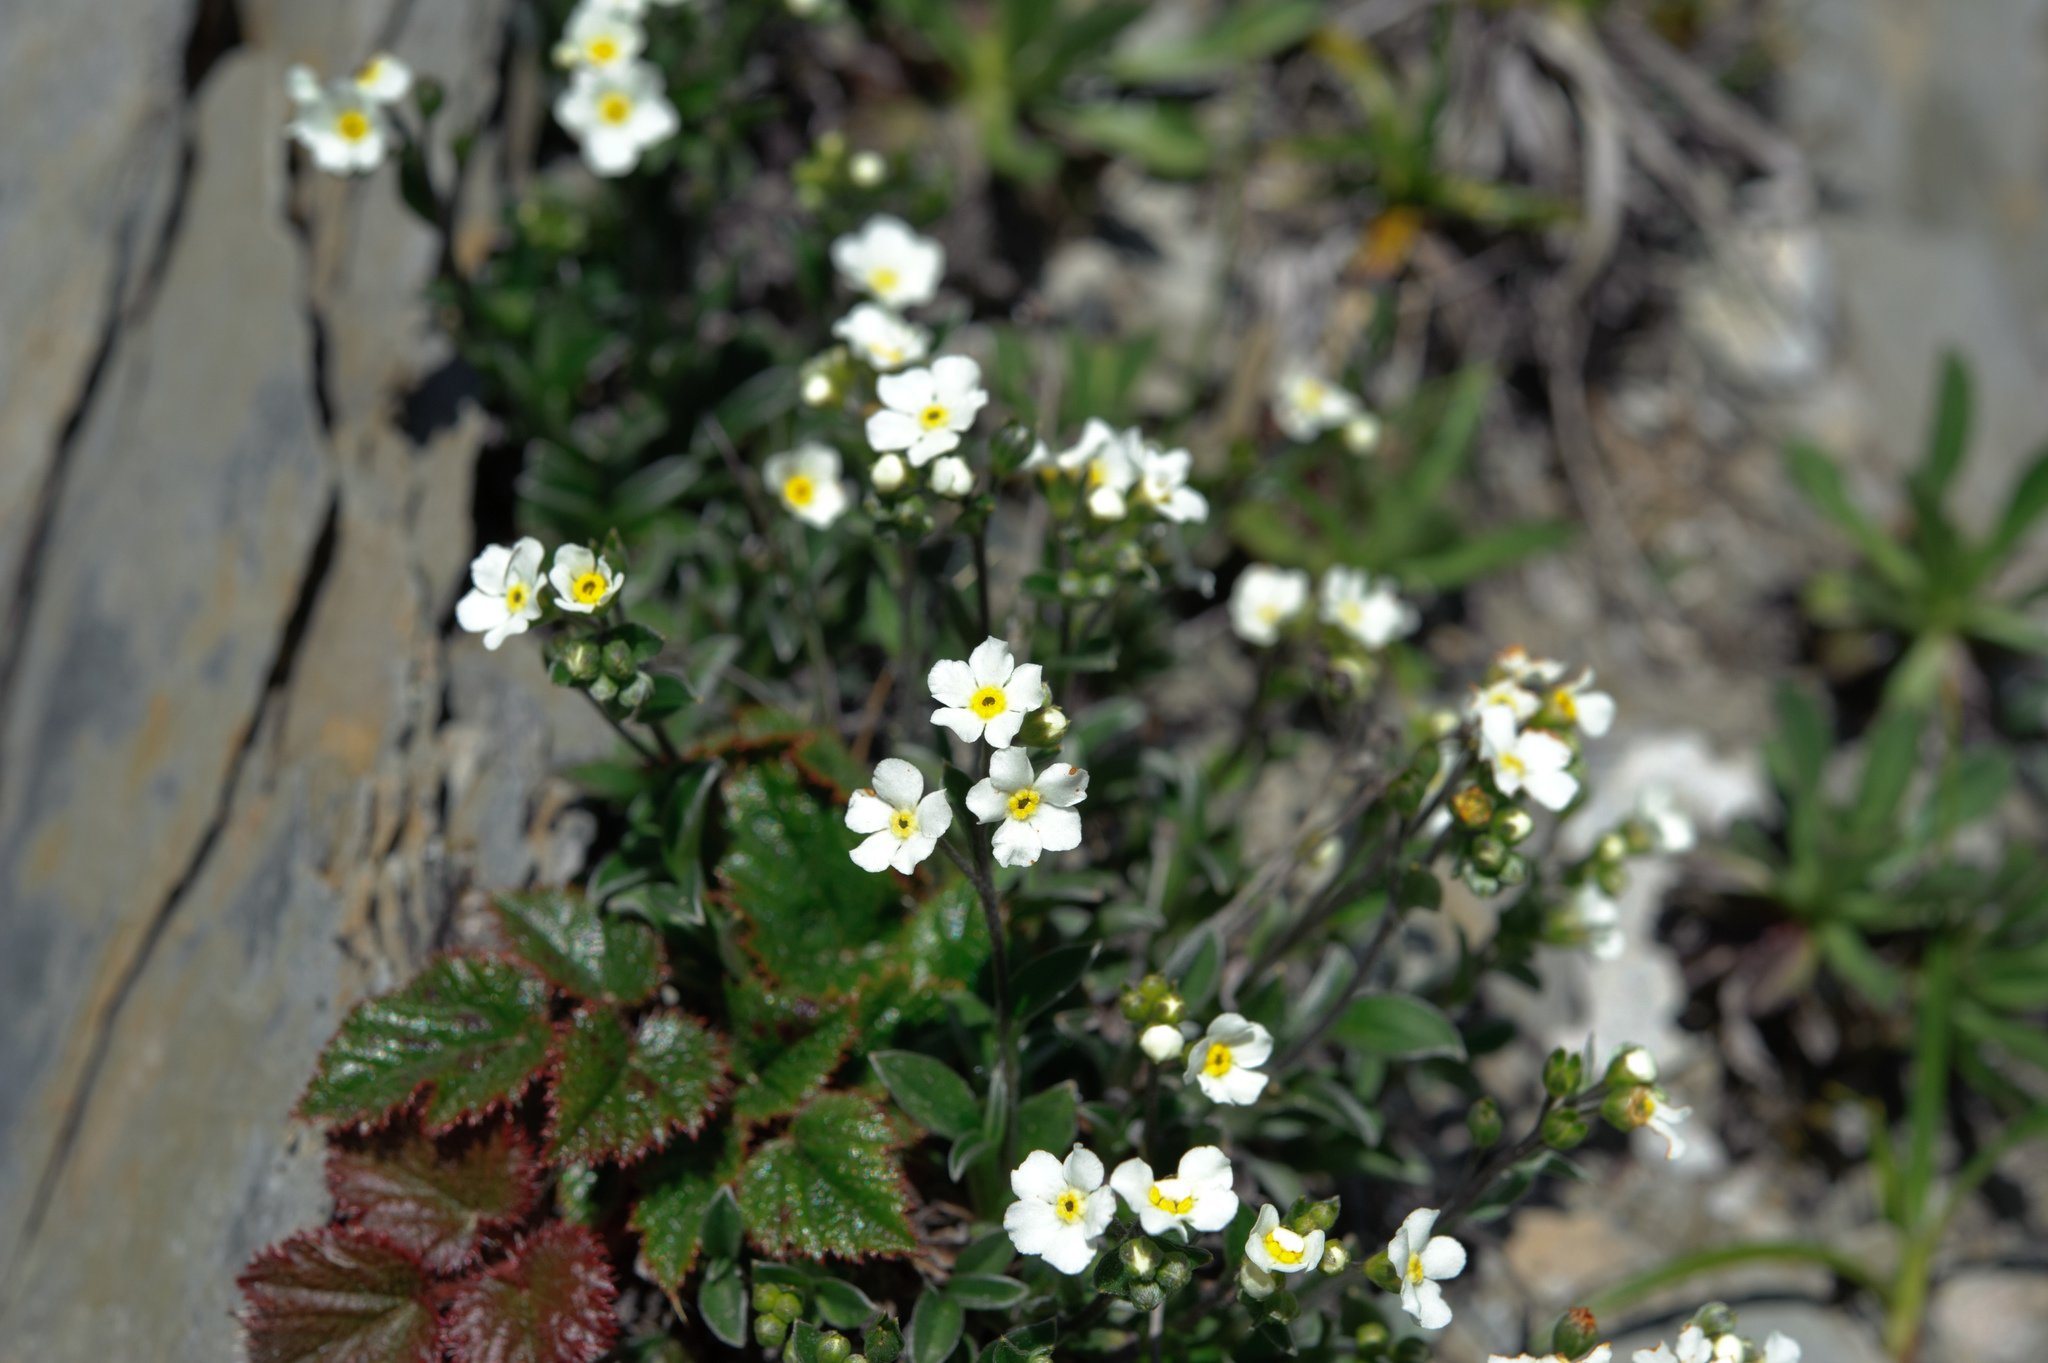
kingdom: Plantae
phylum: Tracheophyta
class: Magnoliopsida
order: Boraginales
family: Boraginaceae
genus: Trigonotis
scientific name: Trigonotis nankotaizanensis
